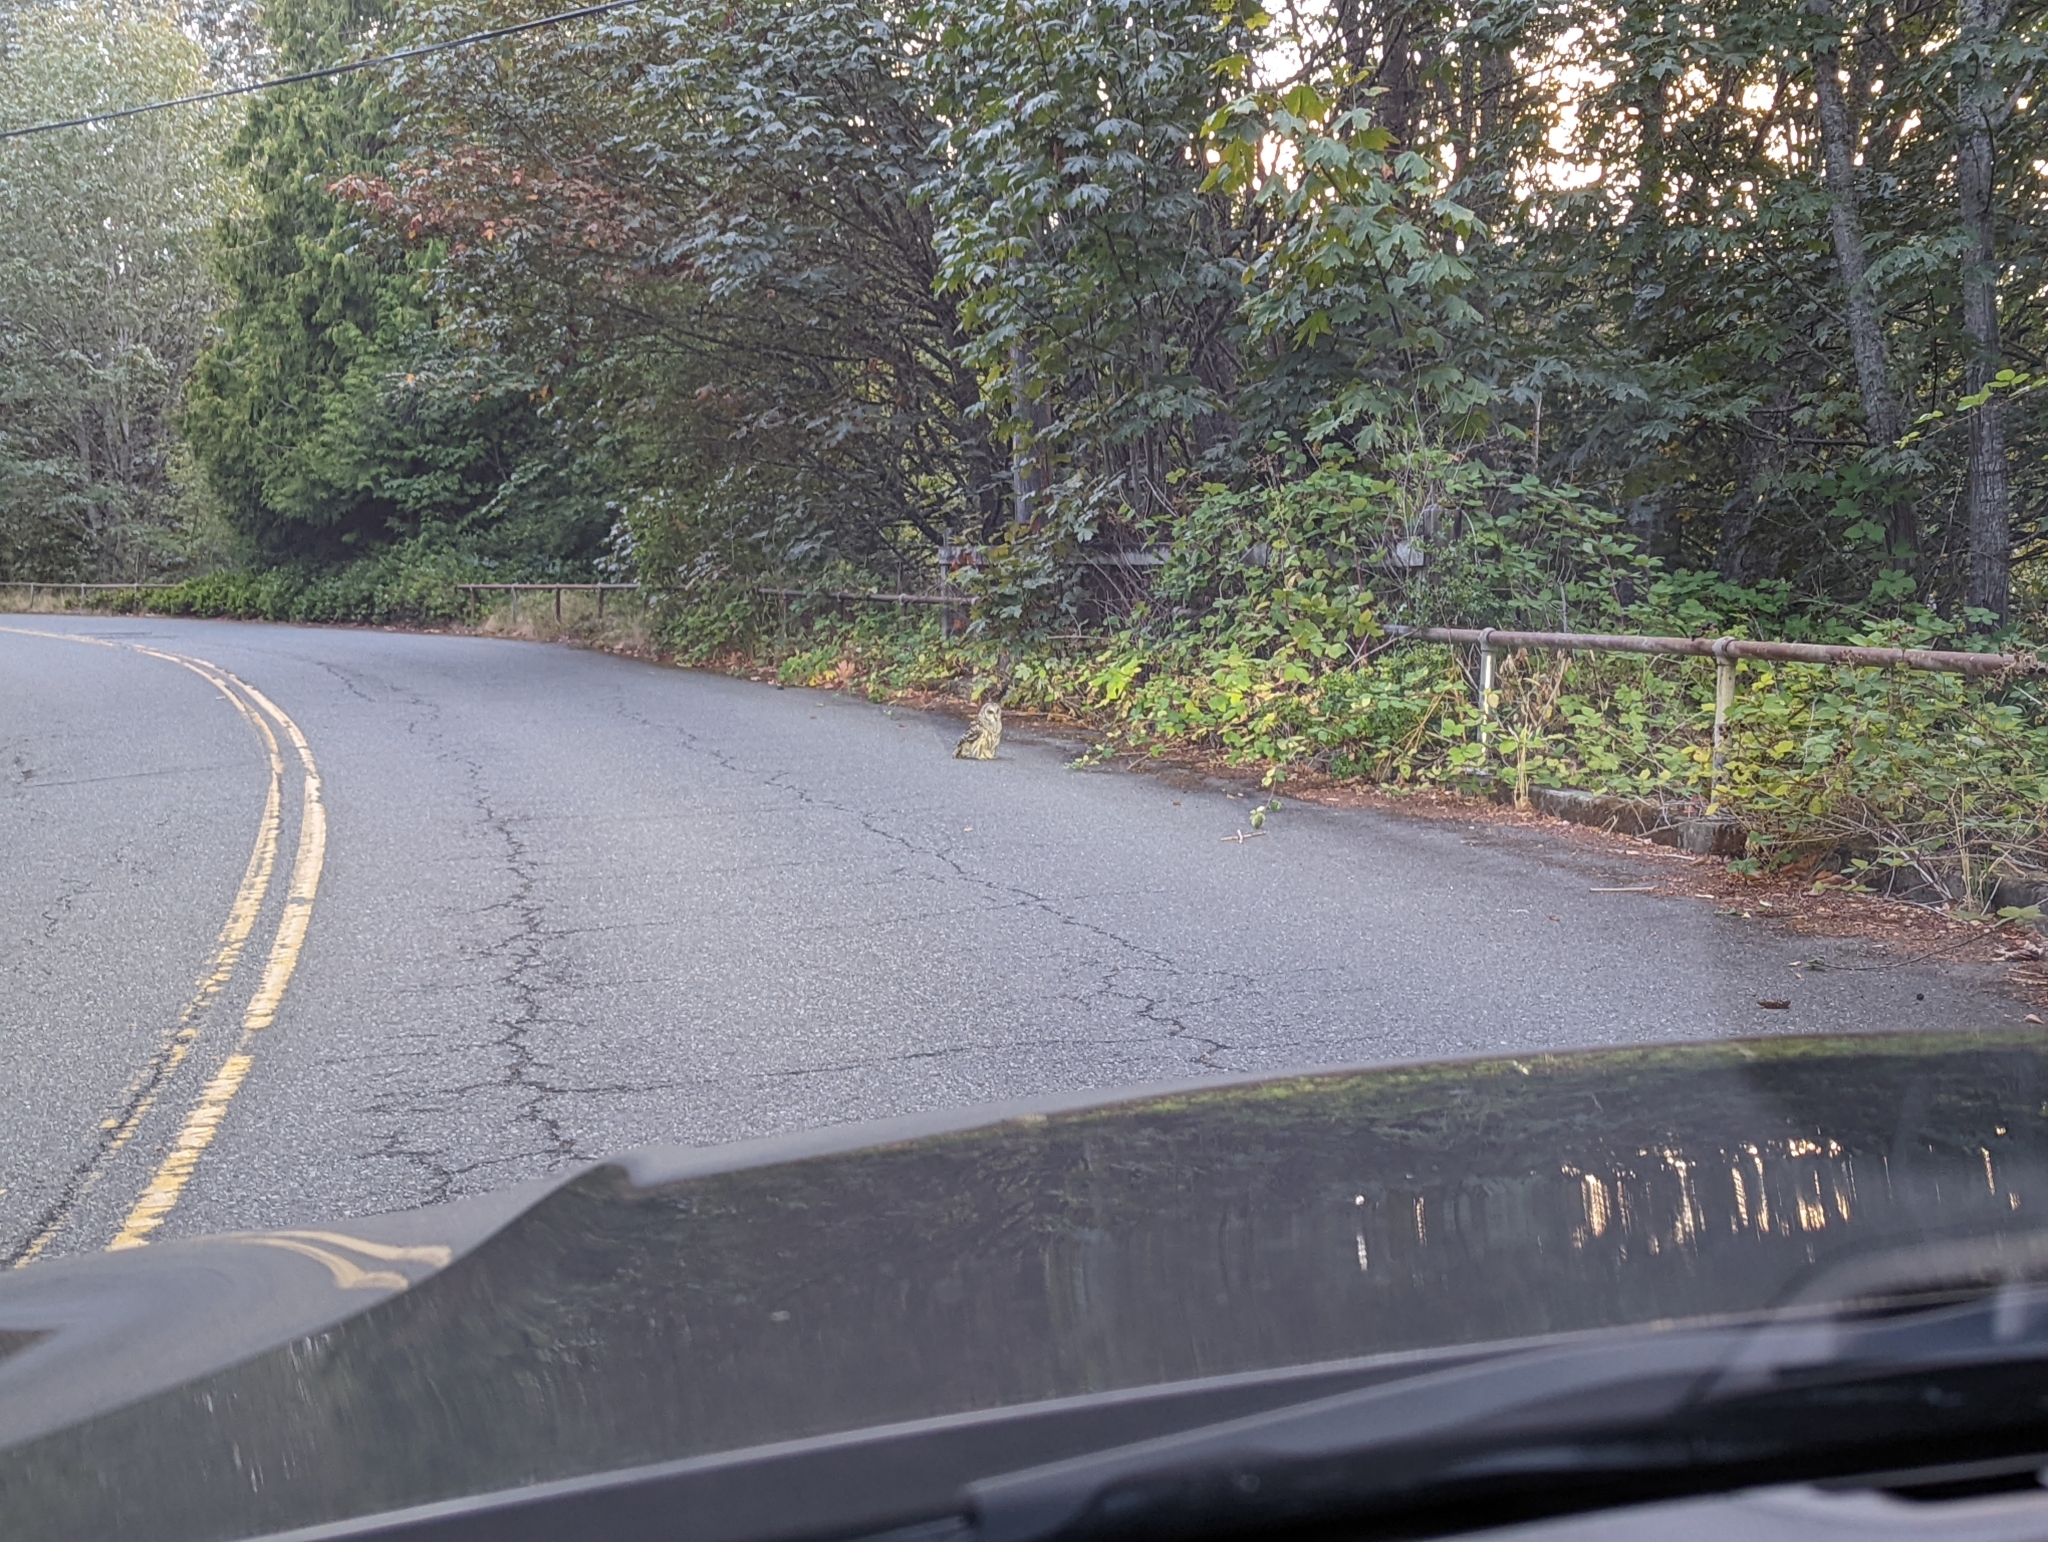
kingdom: Animalia
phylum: Chordata
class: Aves
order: Strigiformes
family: Strigidae
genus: Strix
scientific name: Strix varia
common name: Barred owl
